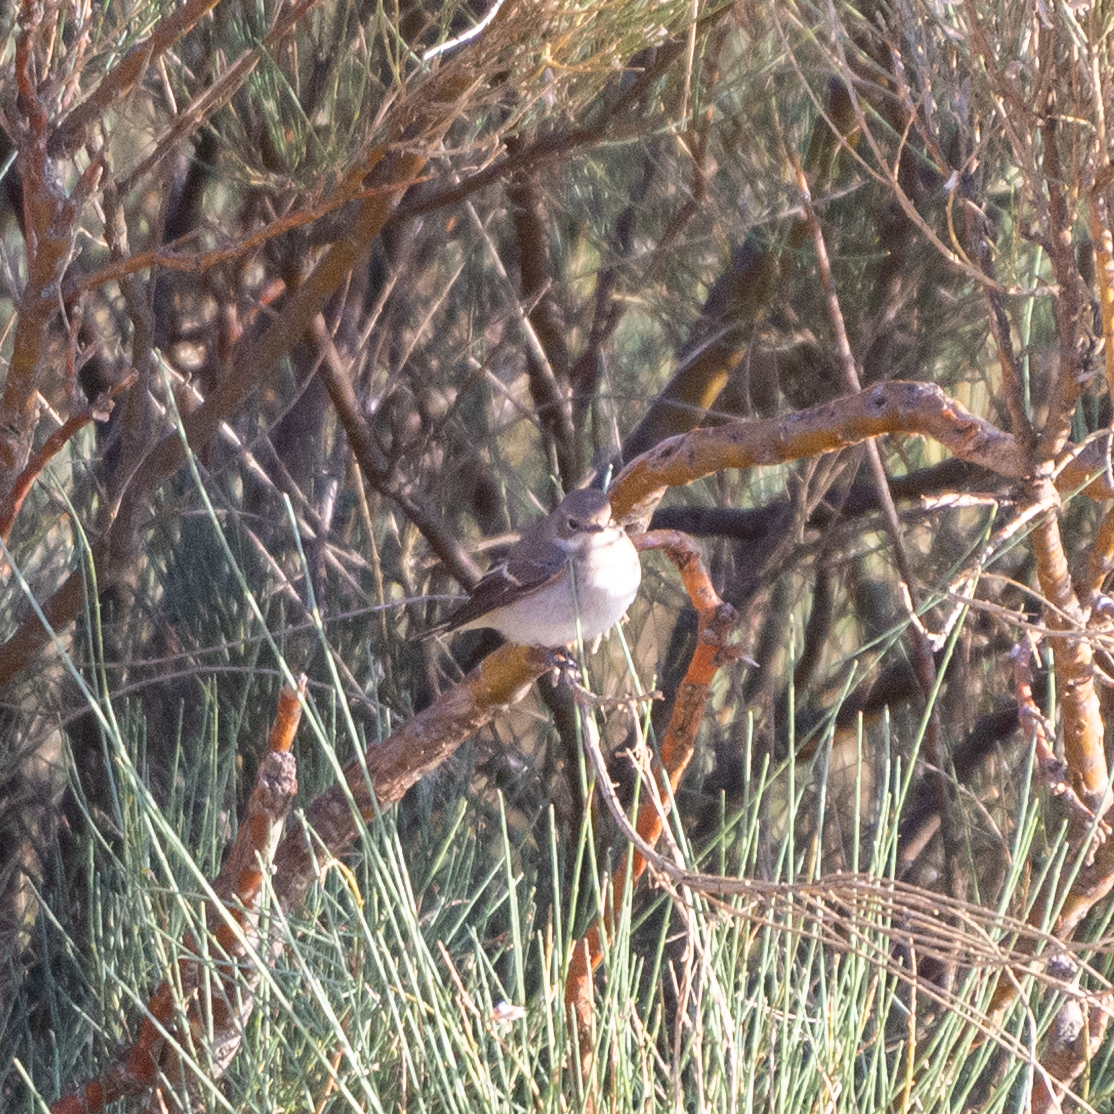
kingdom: Animalia
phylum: Chordata
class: Aves
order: Passeriformes
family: Muscicapidae
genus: Ficedula
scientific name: Ficedula hypoleuca
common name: European pied flycatcher
